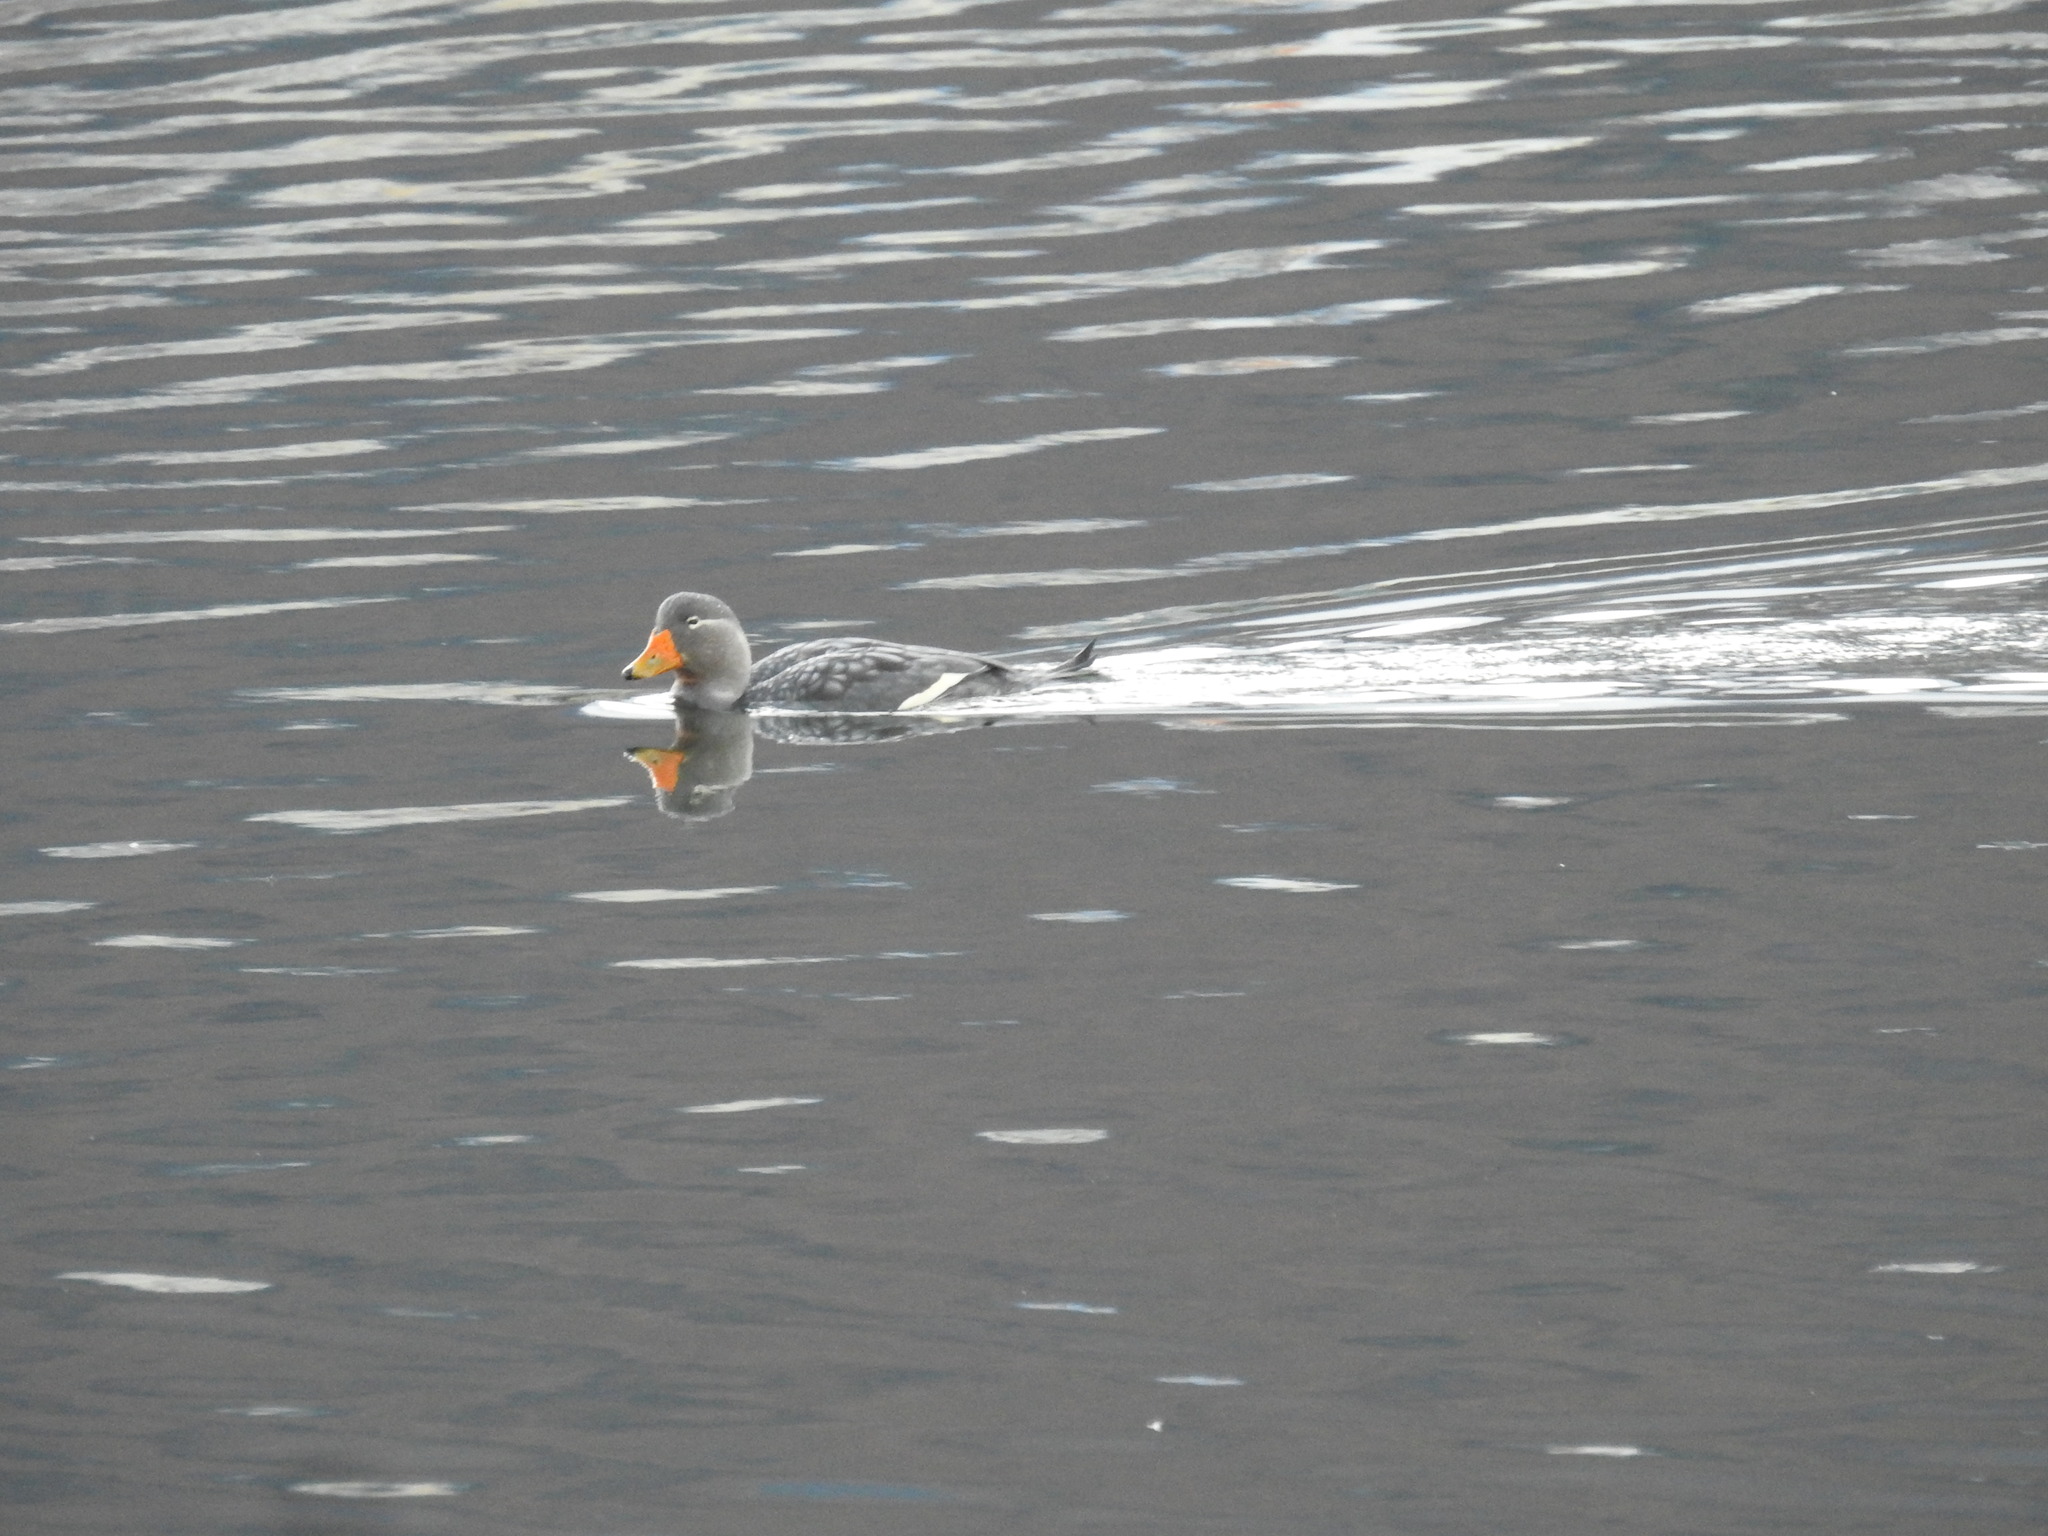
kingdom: Animalia
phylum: Chordata
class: Aves
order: Anseriformes
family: Anatidae
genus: Tachyeres
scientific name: Tachyeres patachonicus
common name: Flying steamer duck
